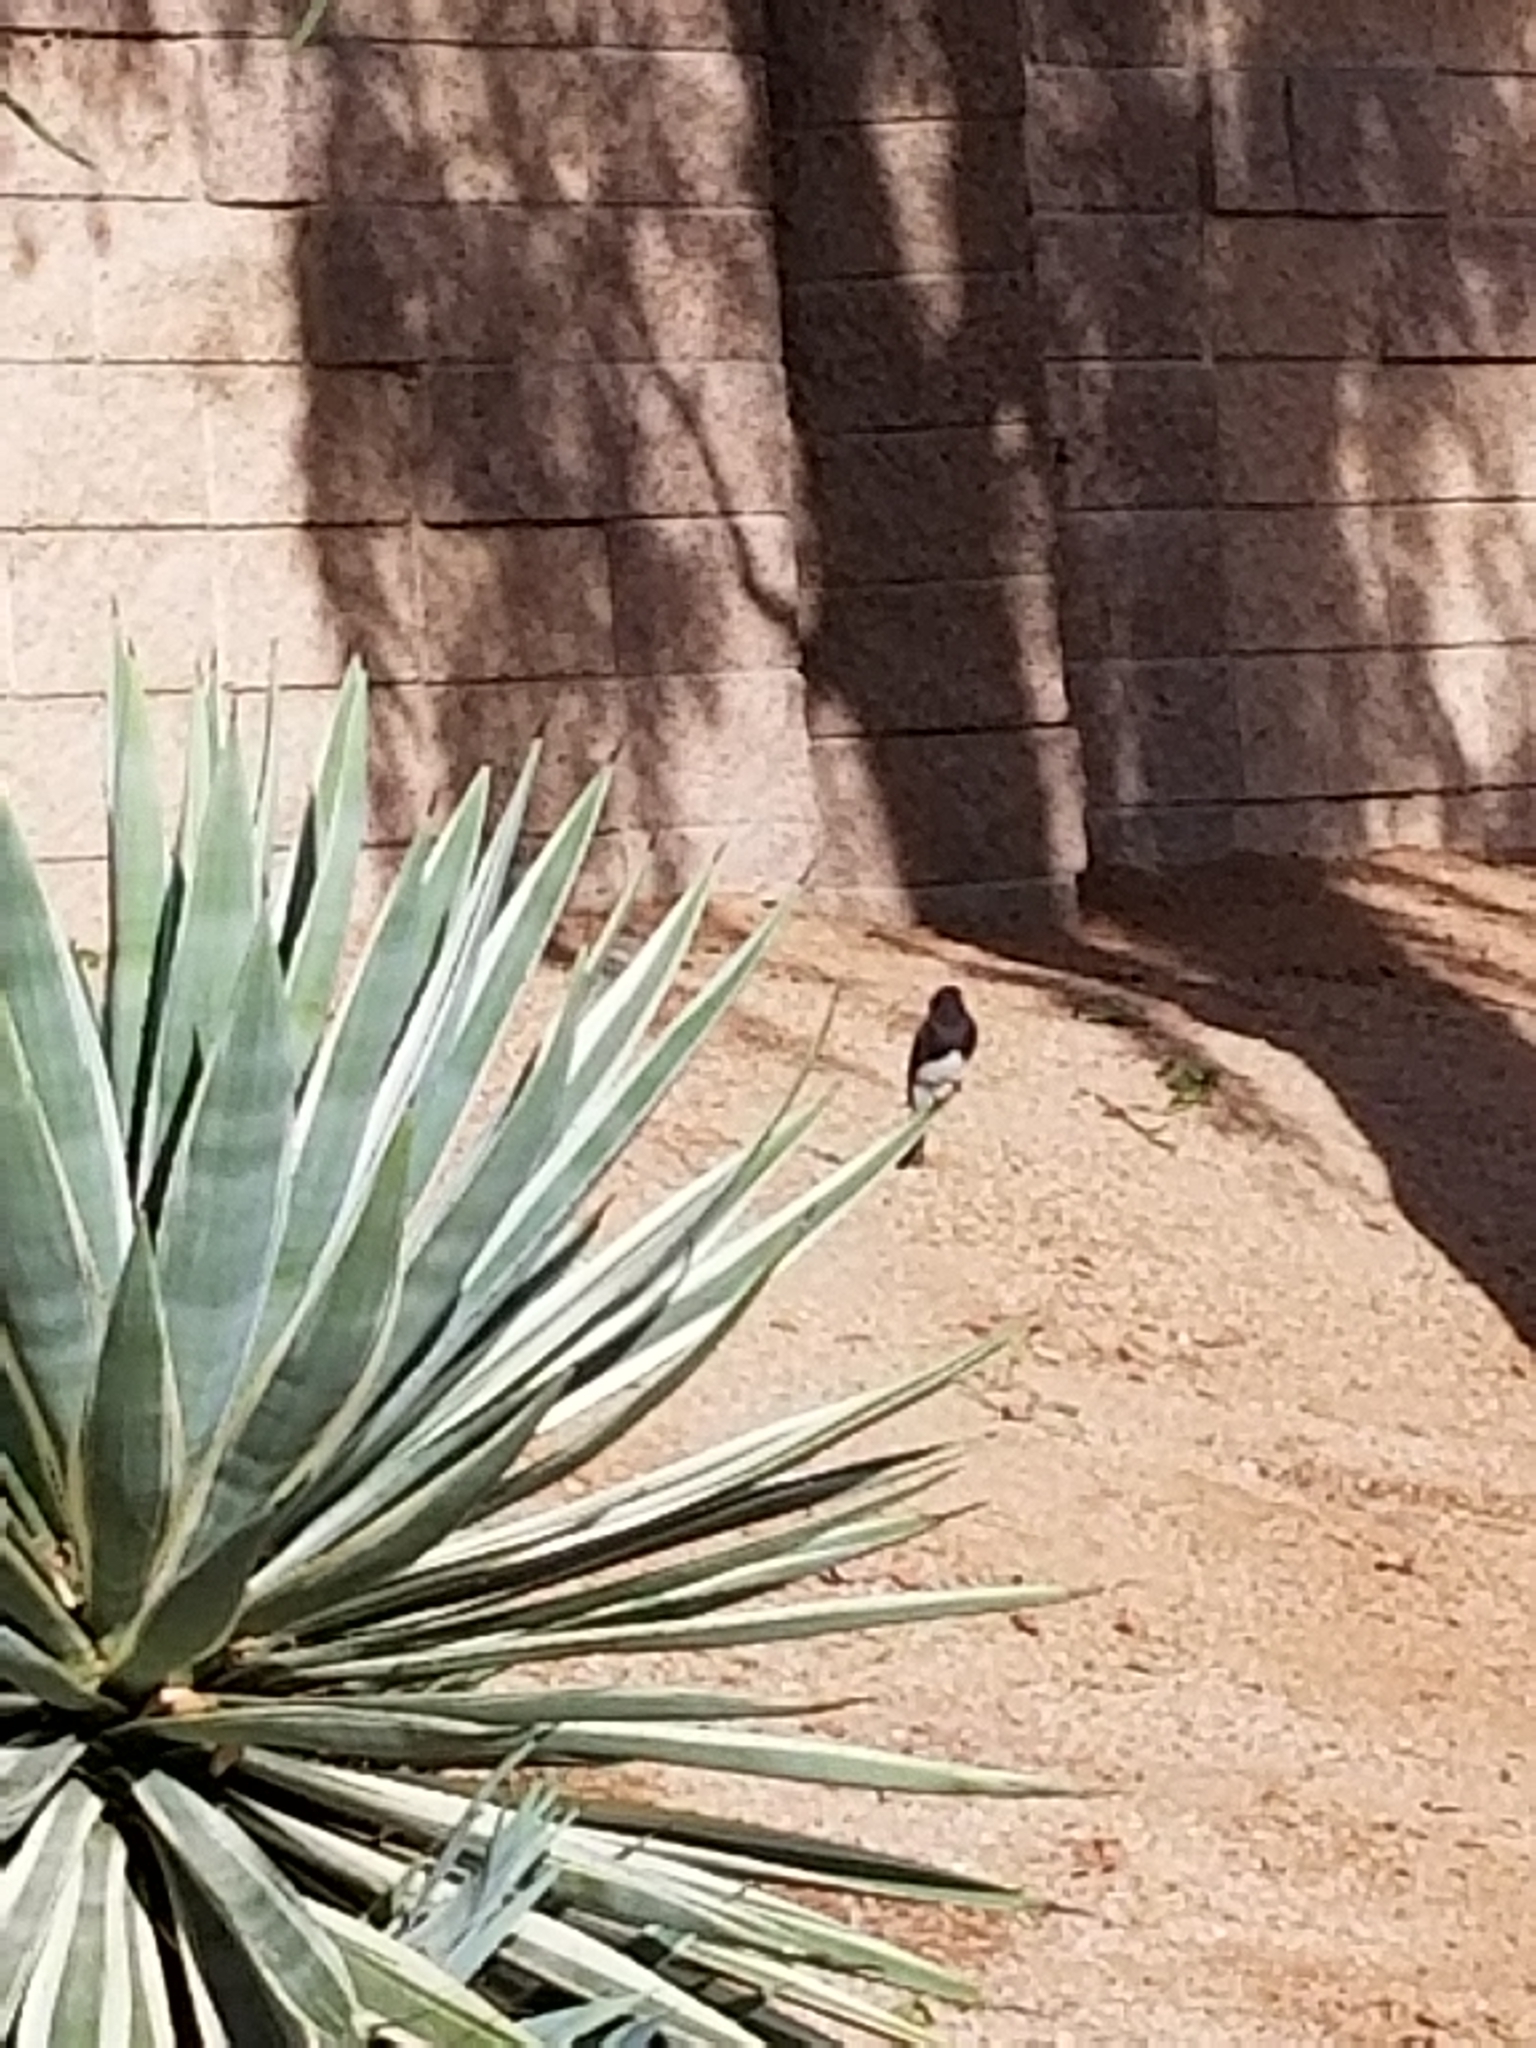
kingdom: Animalia
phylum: Chordata
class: Aves
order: Passeriformes
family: Tyrannidae
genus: Sayornis
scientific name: Sayornis nigricans
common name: Black phoebe
